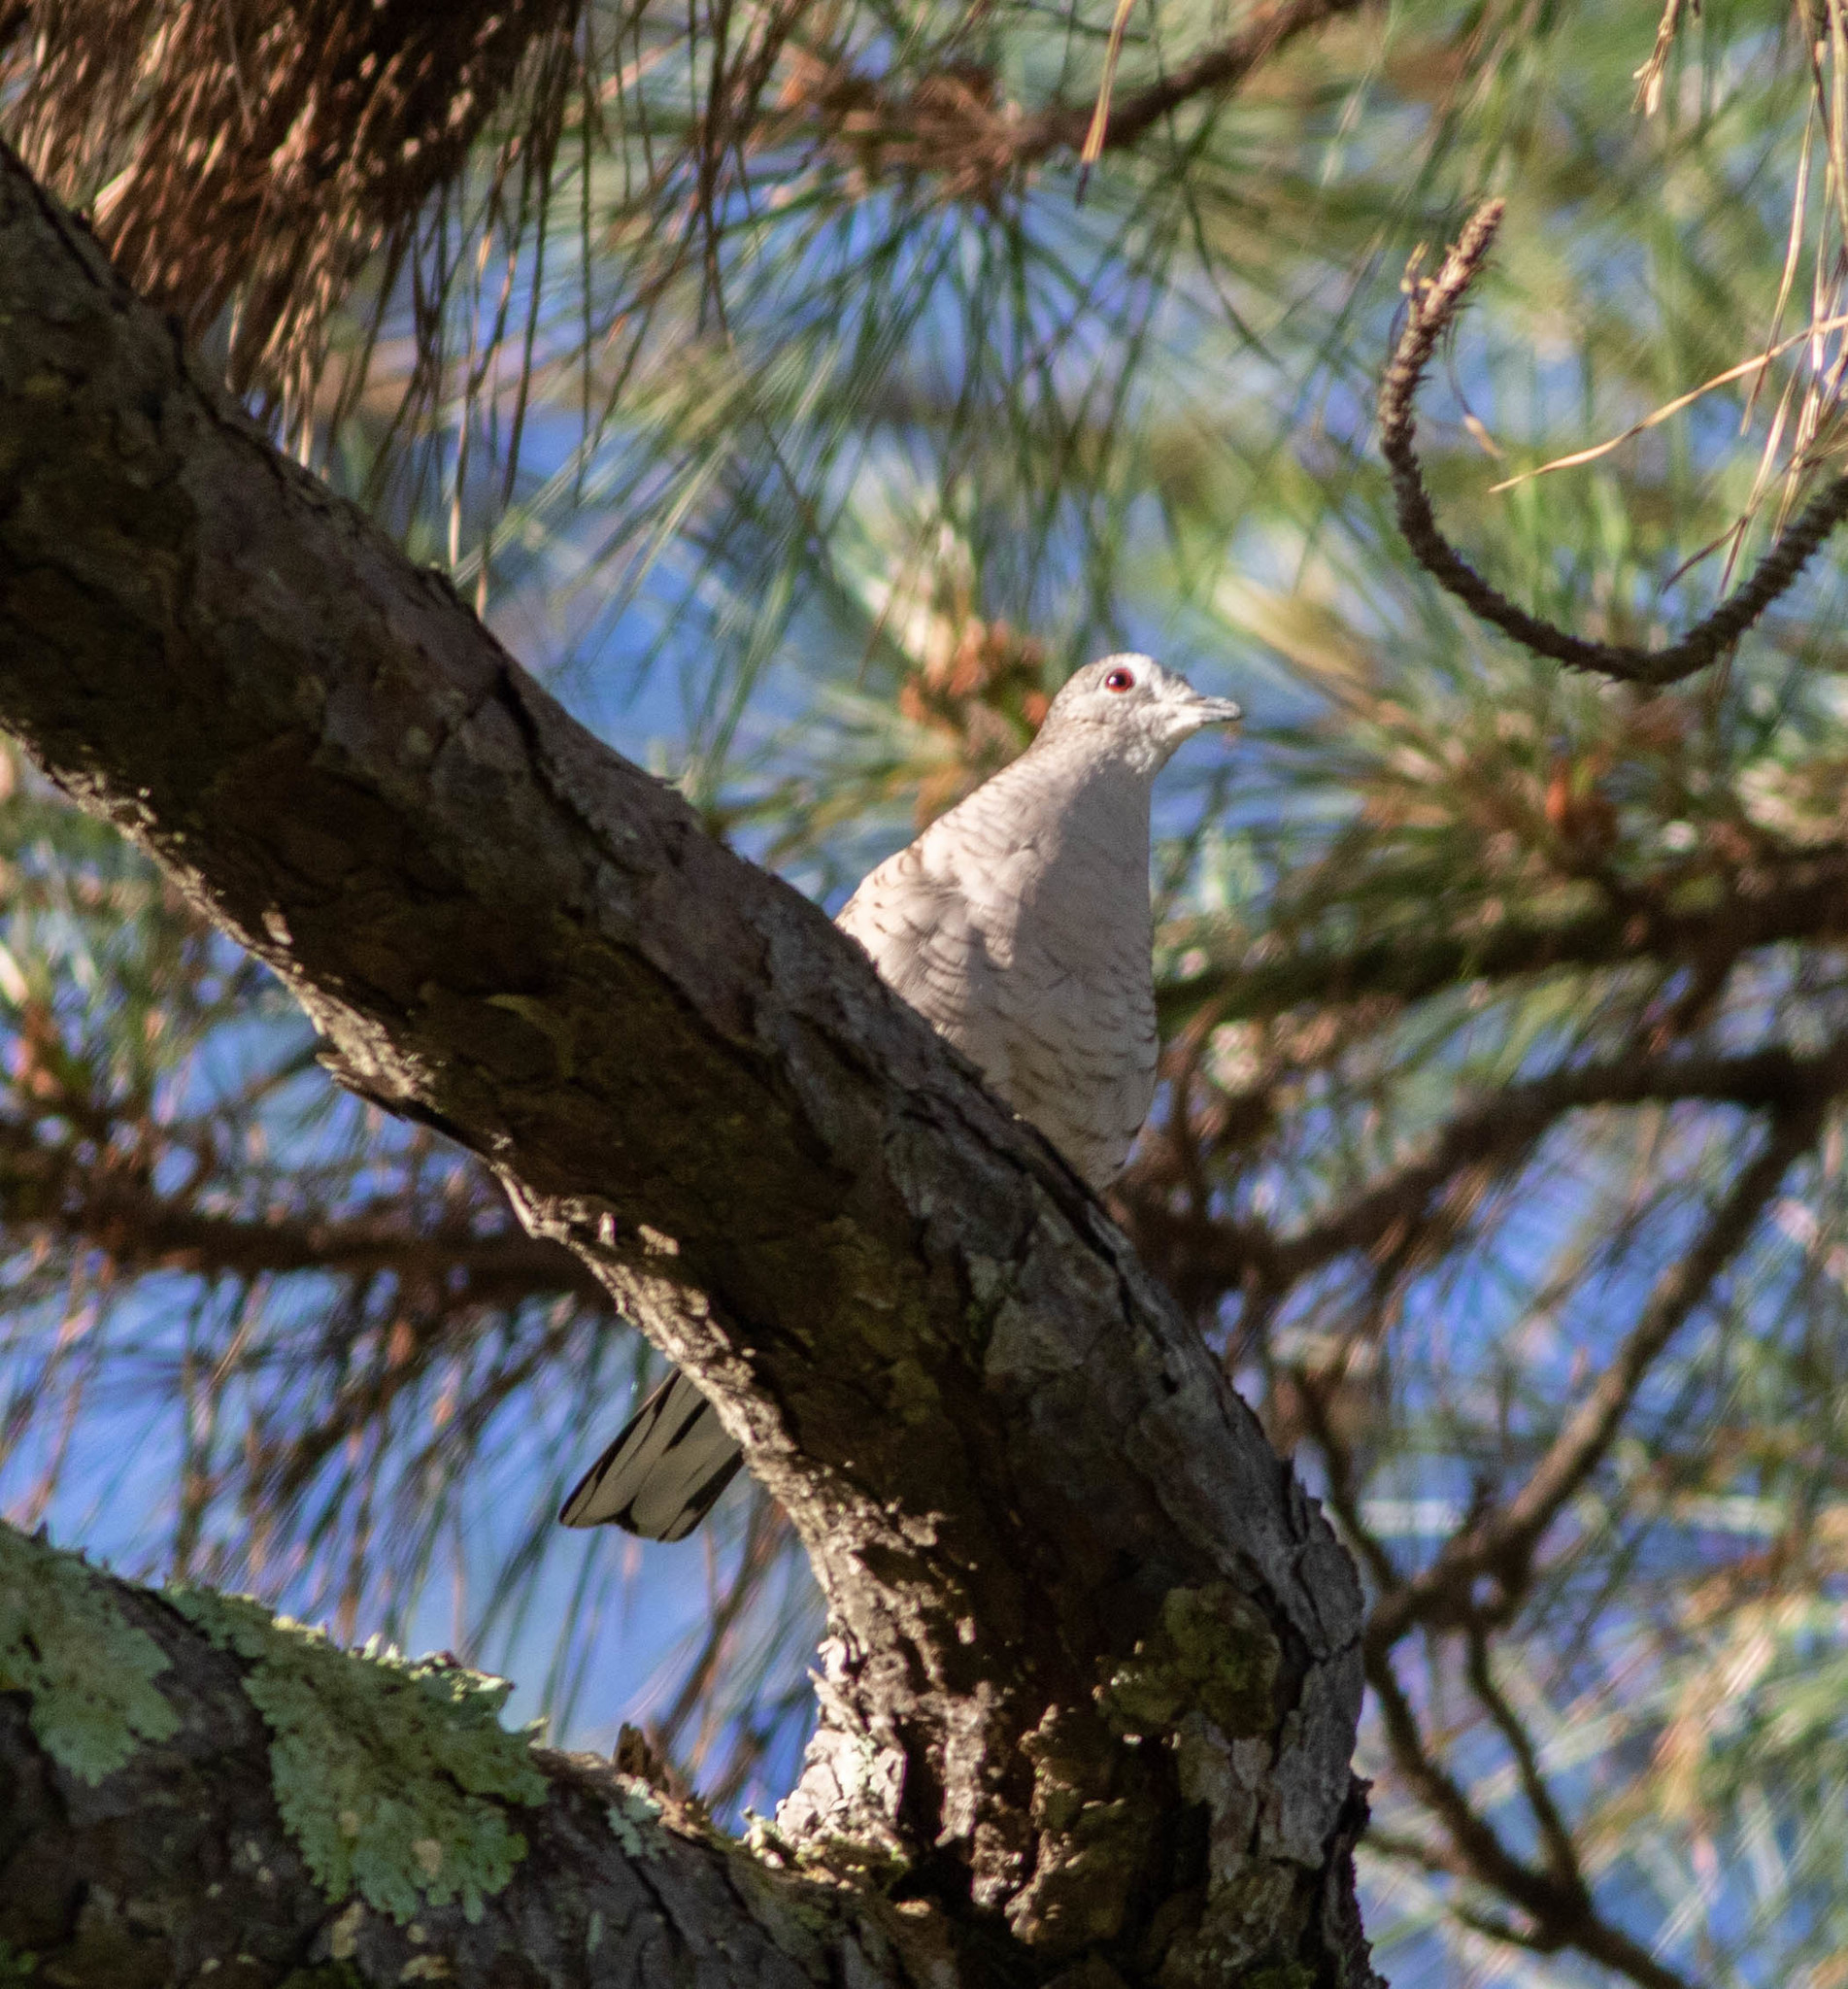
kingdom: Animalia
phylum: Chordata
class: Aves
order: Columbiformes
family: Columbidae
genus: Columbina
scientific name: Columbina inca
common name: Inca dove
